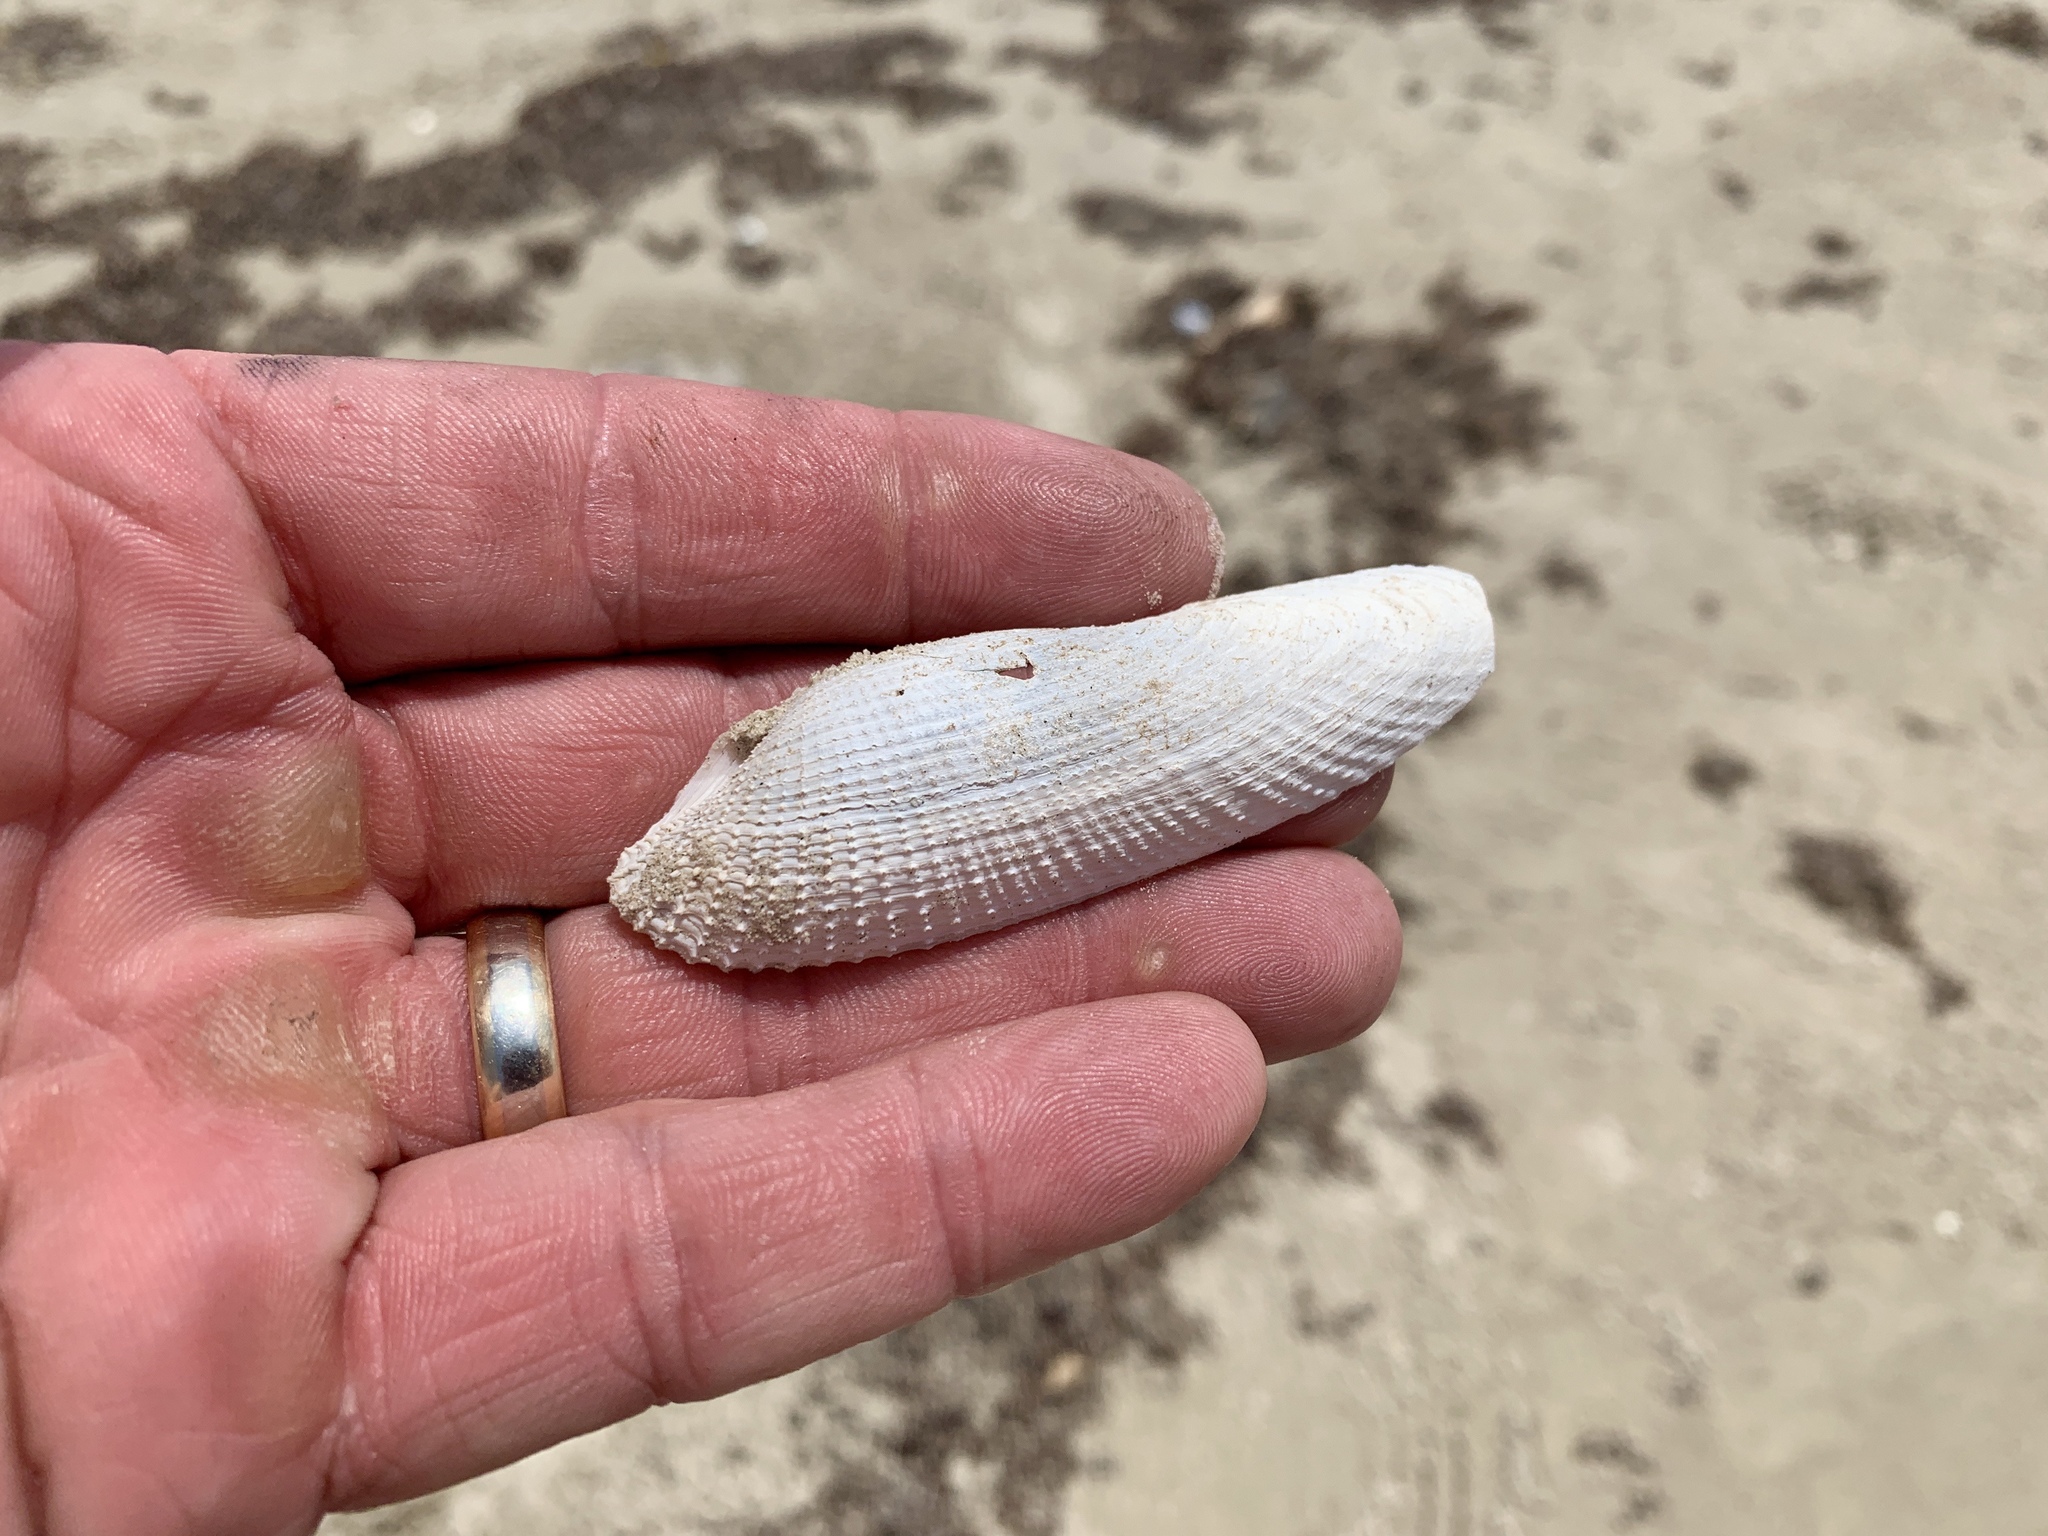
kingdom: Animalia
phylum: Mollusca
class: Bivalvia
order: Myida
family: Pholadidae
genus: Pholas
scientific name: Pholas campechiensis
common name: Campeche angel wing
